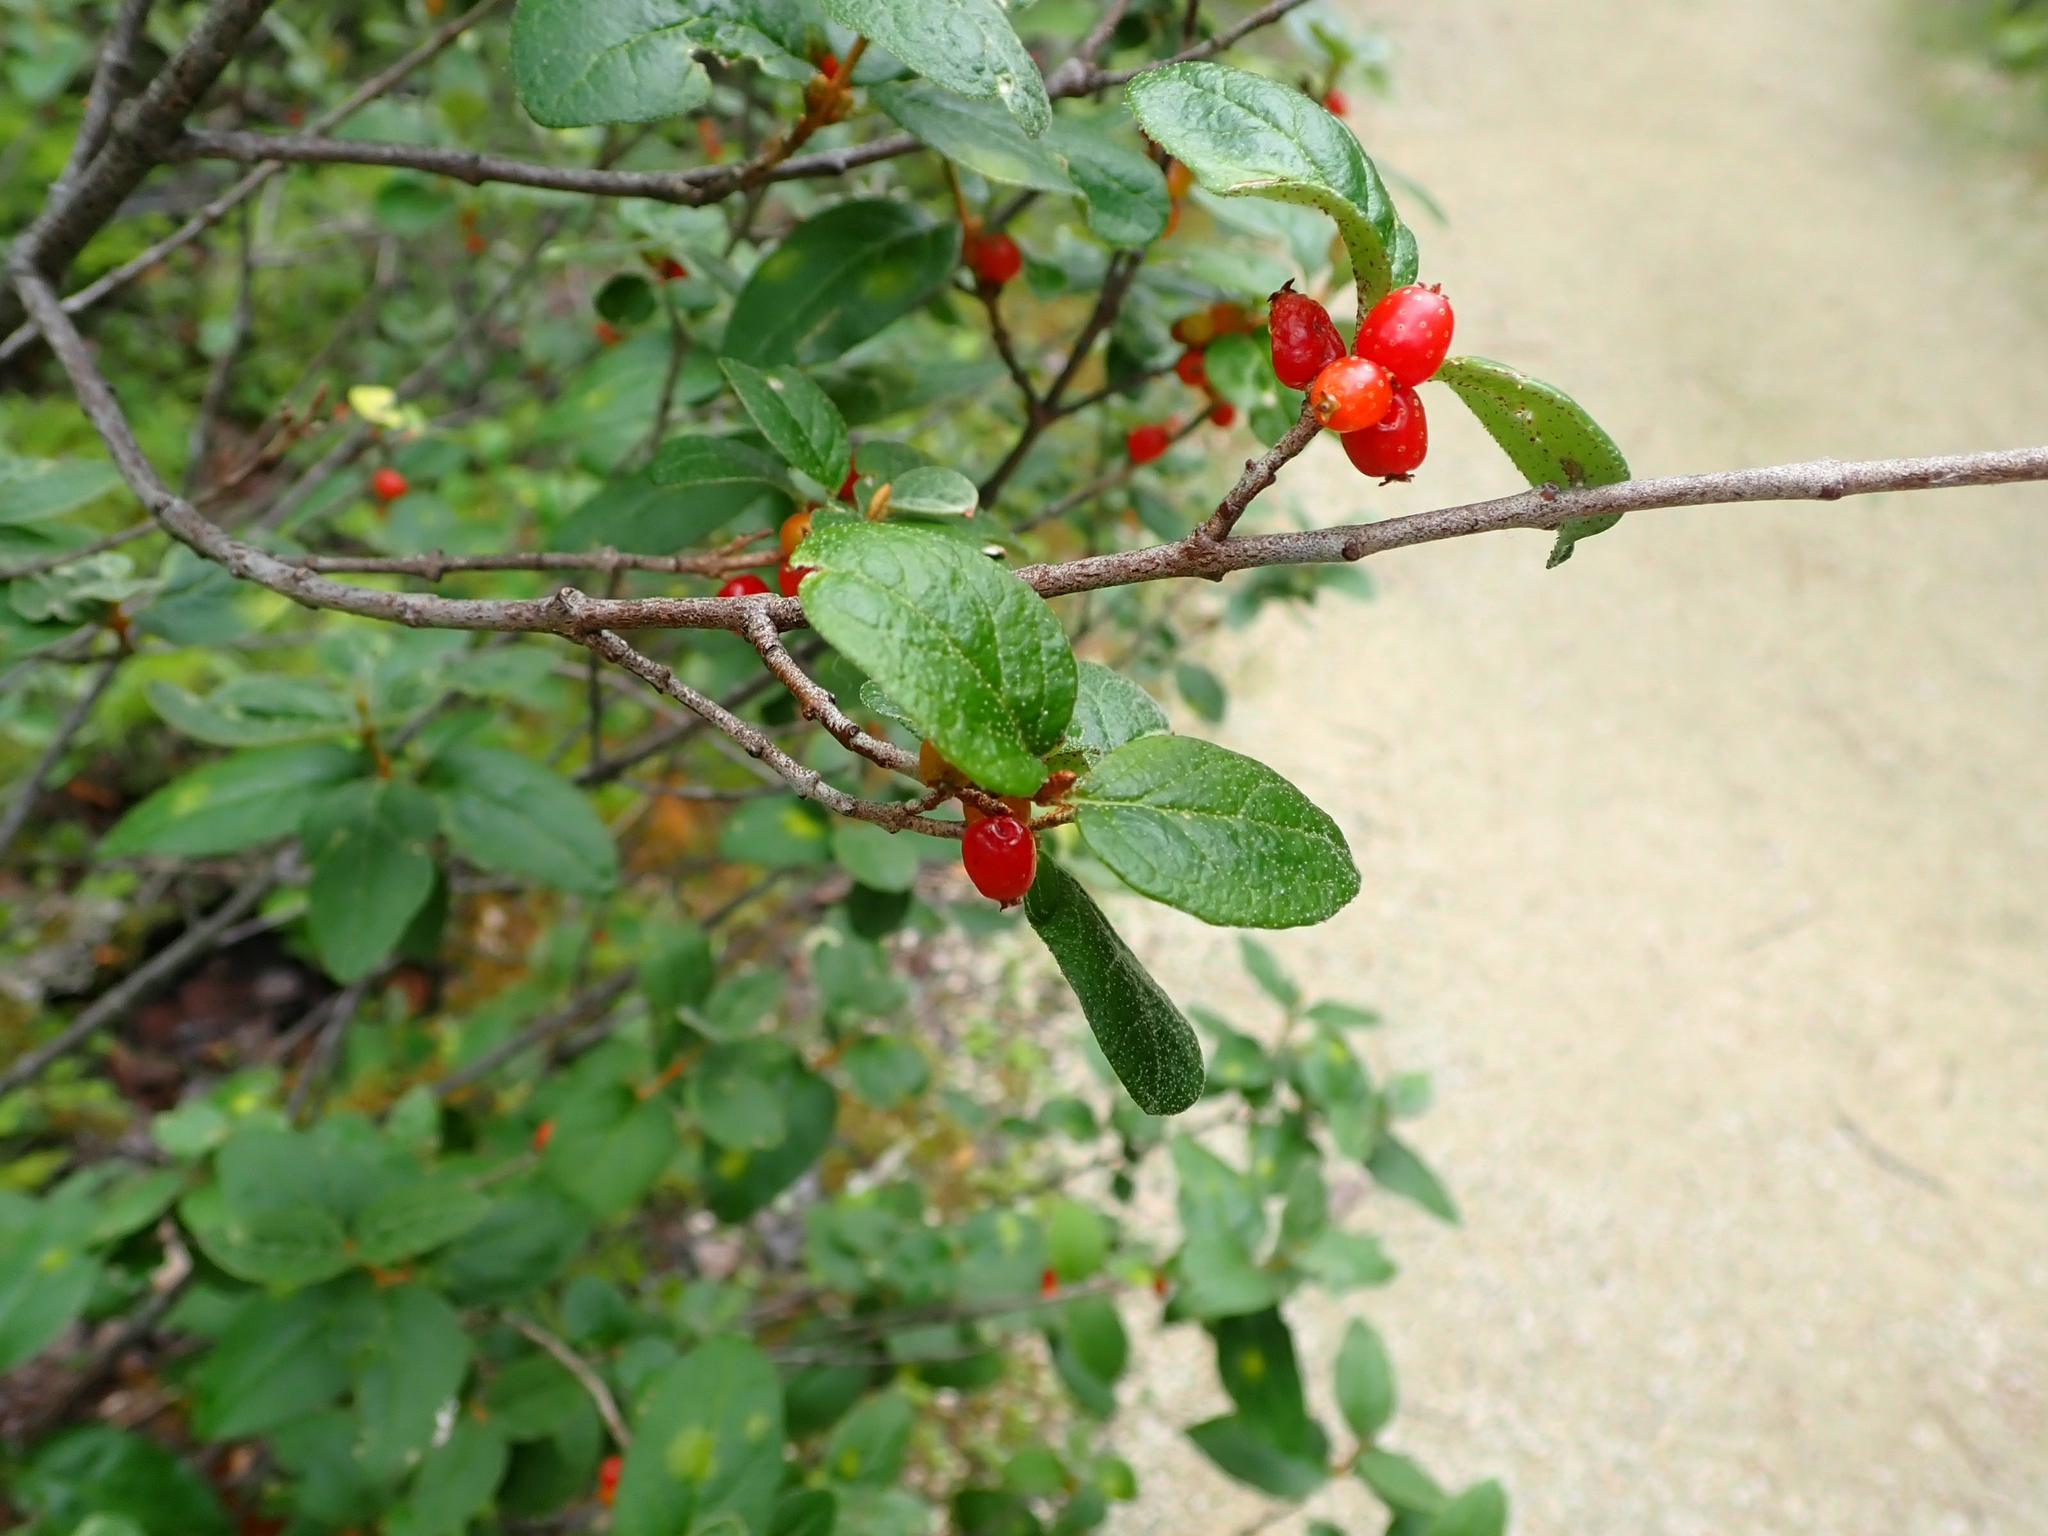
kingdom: Plantae
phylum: Tracheophyta
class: Magnoliopsida
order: Rosales
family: Elaeagnaceae
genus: Shepherdia
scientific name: Shepherdia canadensis
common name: Soapberry
